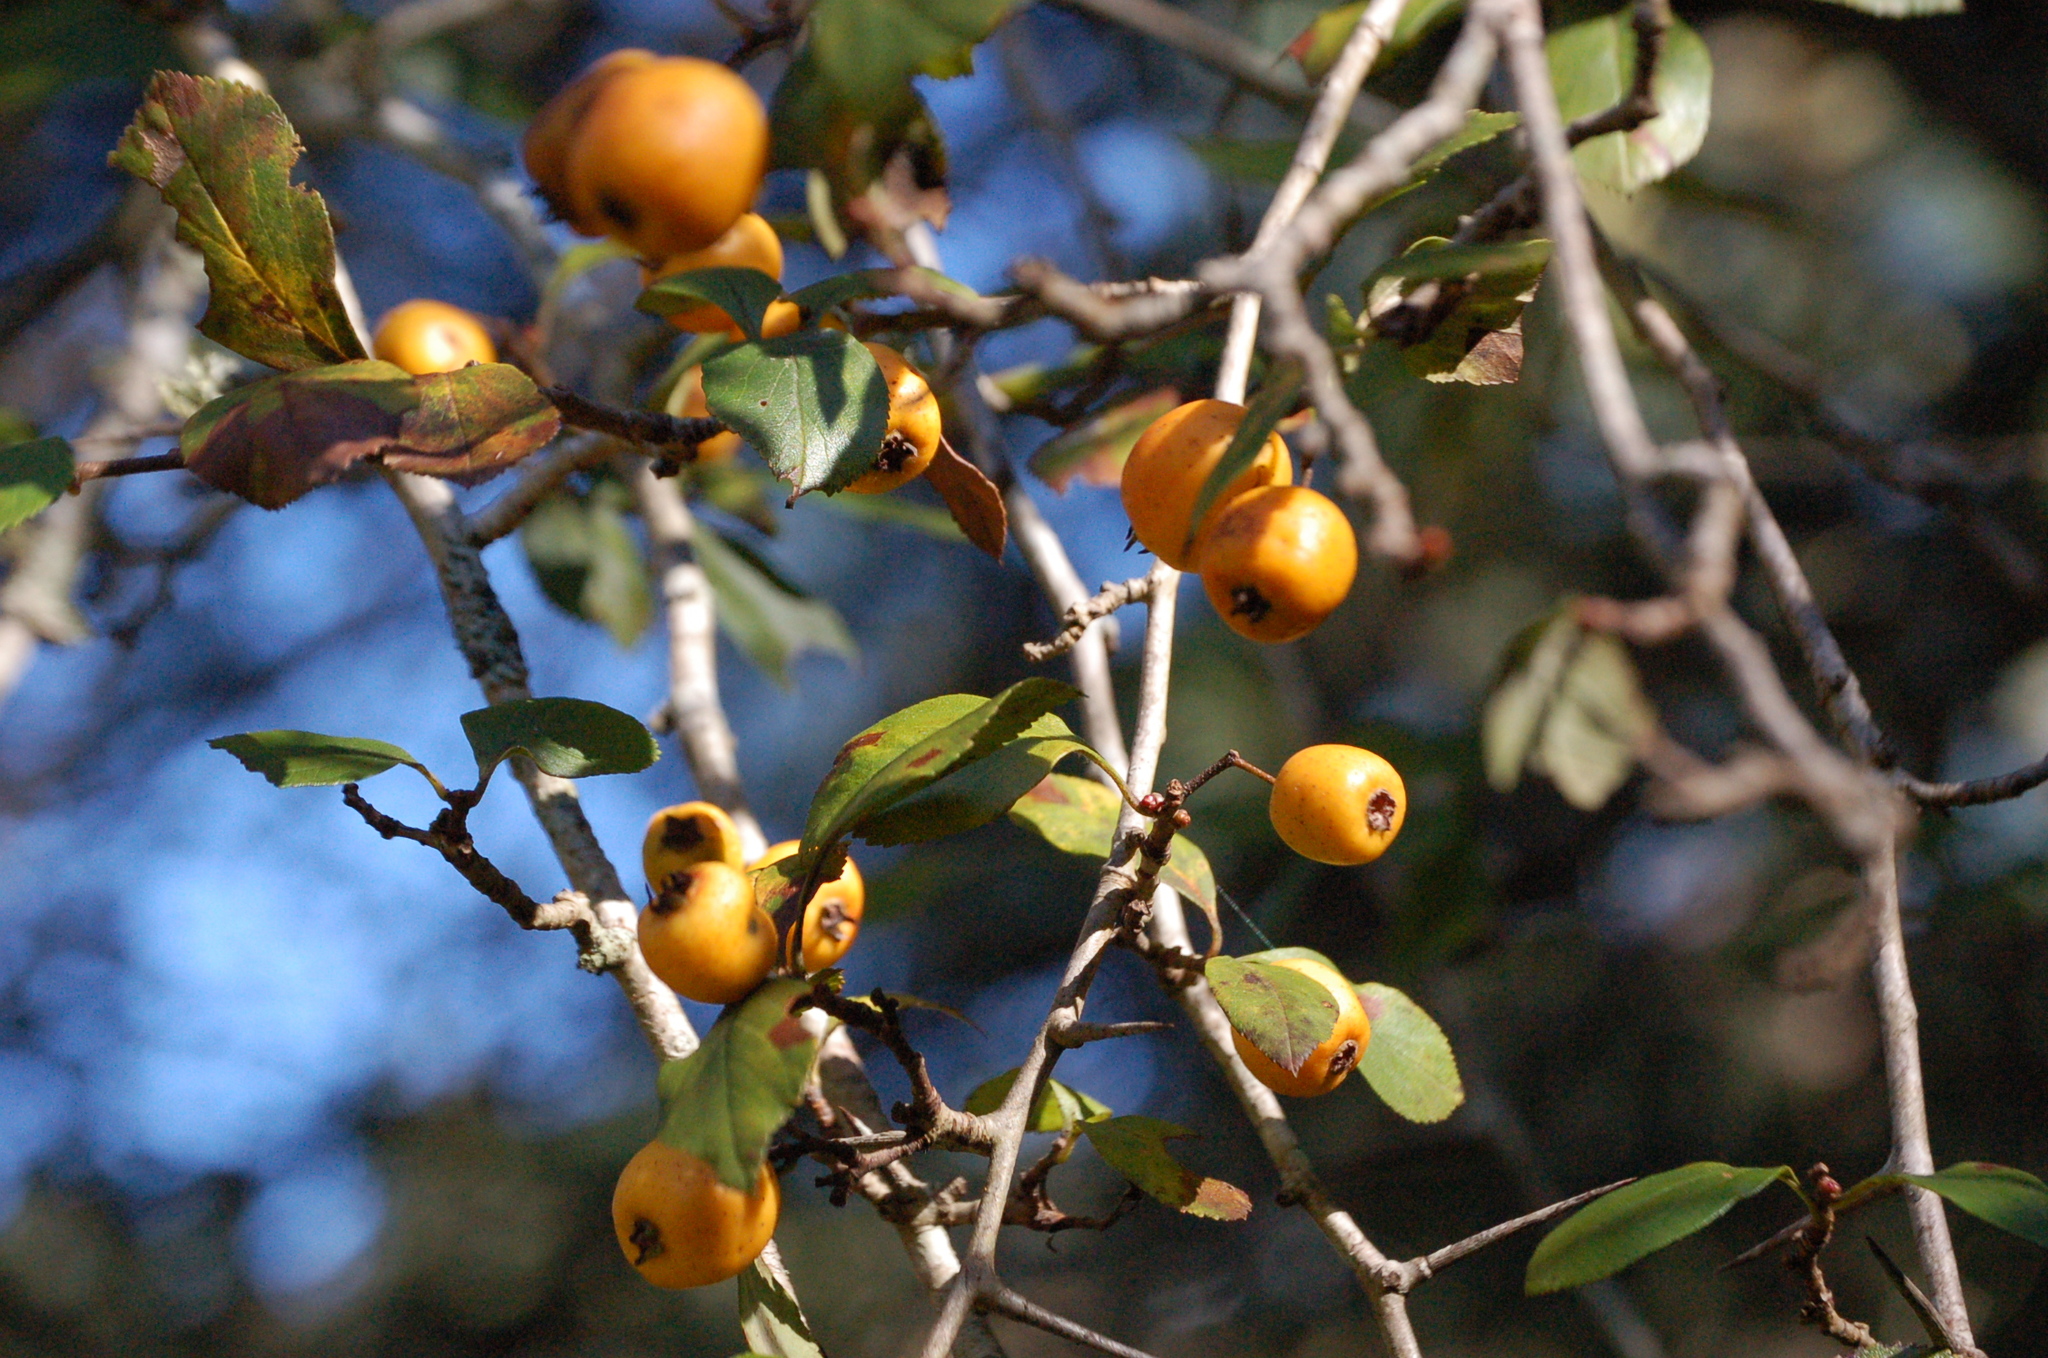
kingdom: Plantae
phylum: Tracheophyta
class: Magnoliopsida
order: Rosales
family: Rosaceae
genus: Crataegus
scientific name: Crataegus mexicana
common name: Mexican hawthorn
